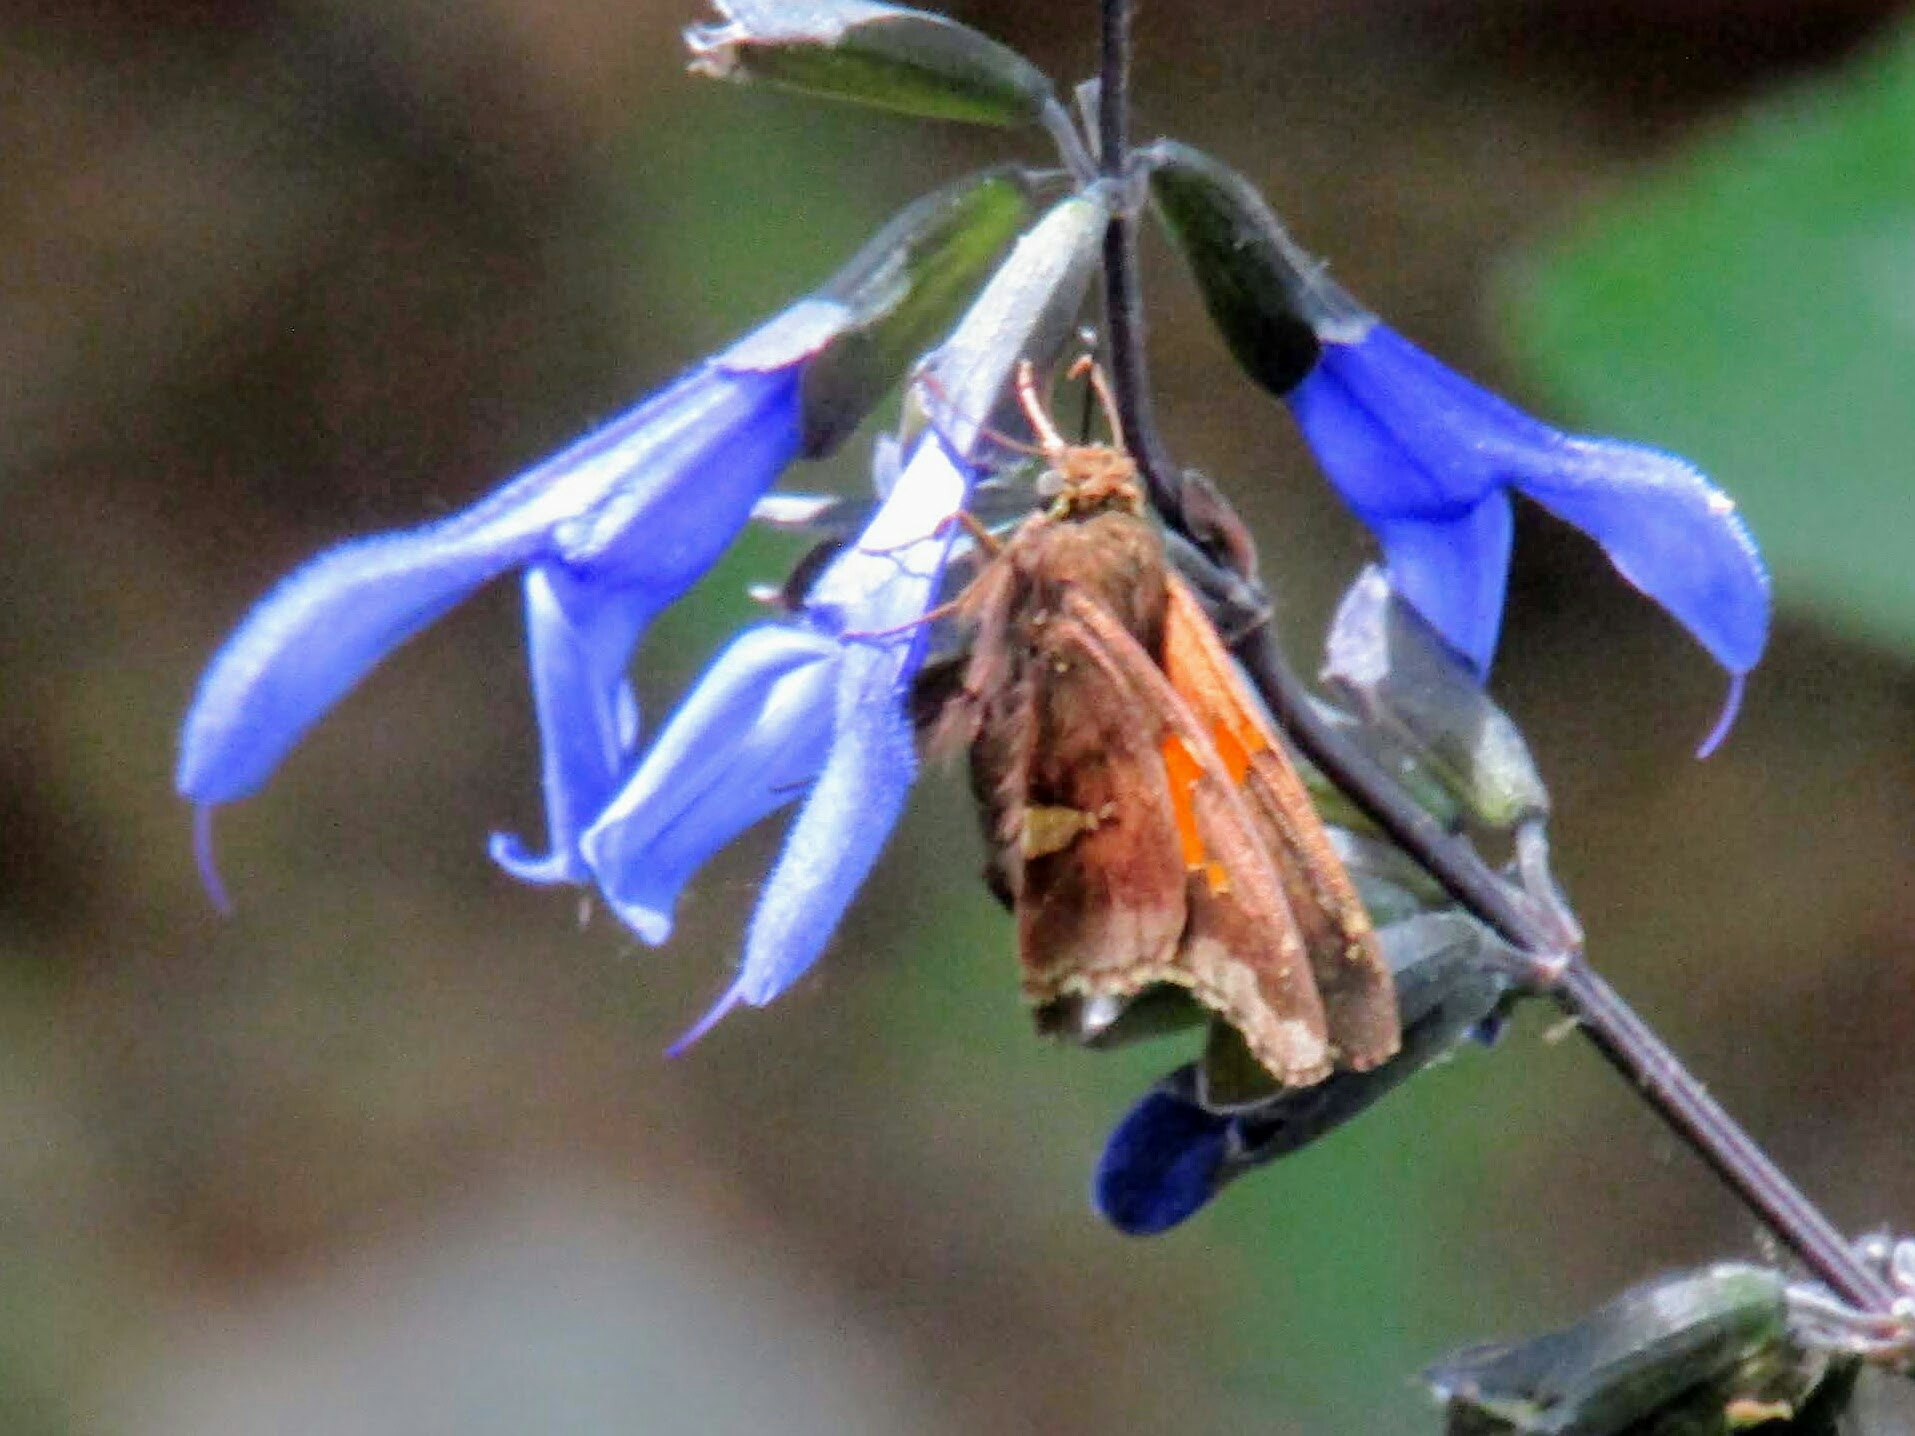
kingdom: Animalia
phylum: Arthropoda
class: Insecta
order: Lepidoptera
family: Hesperiidae
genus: Epargyreus
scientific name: Epargyreus tmolis
